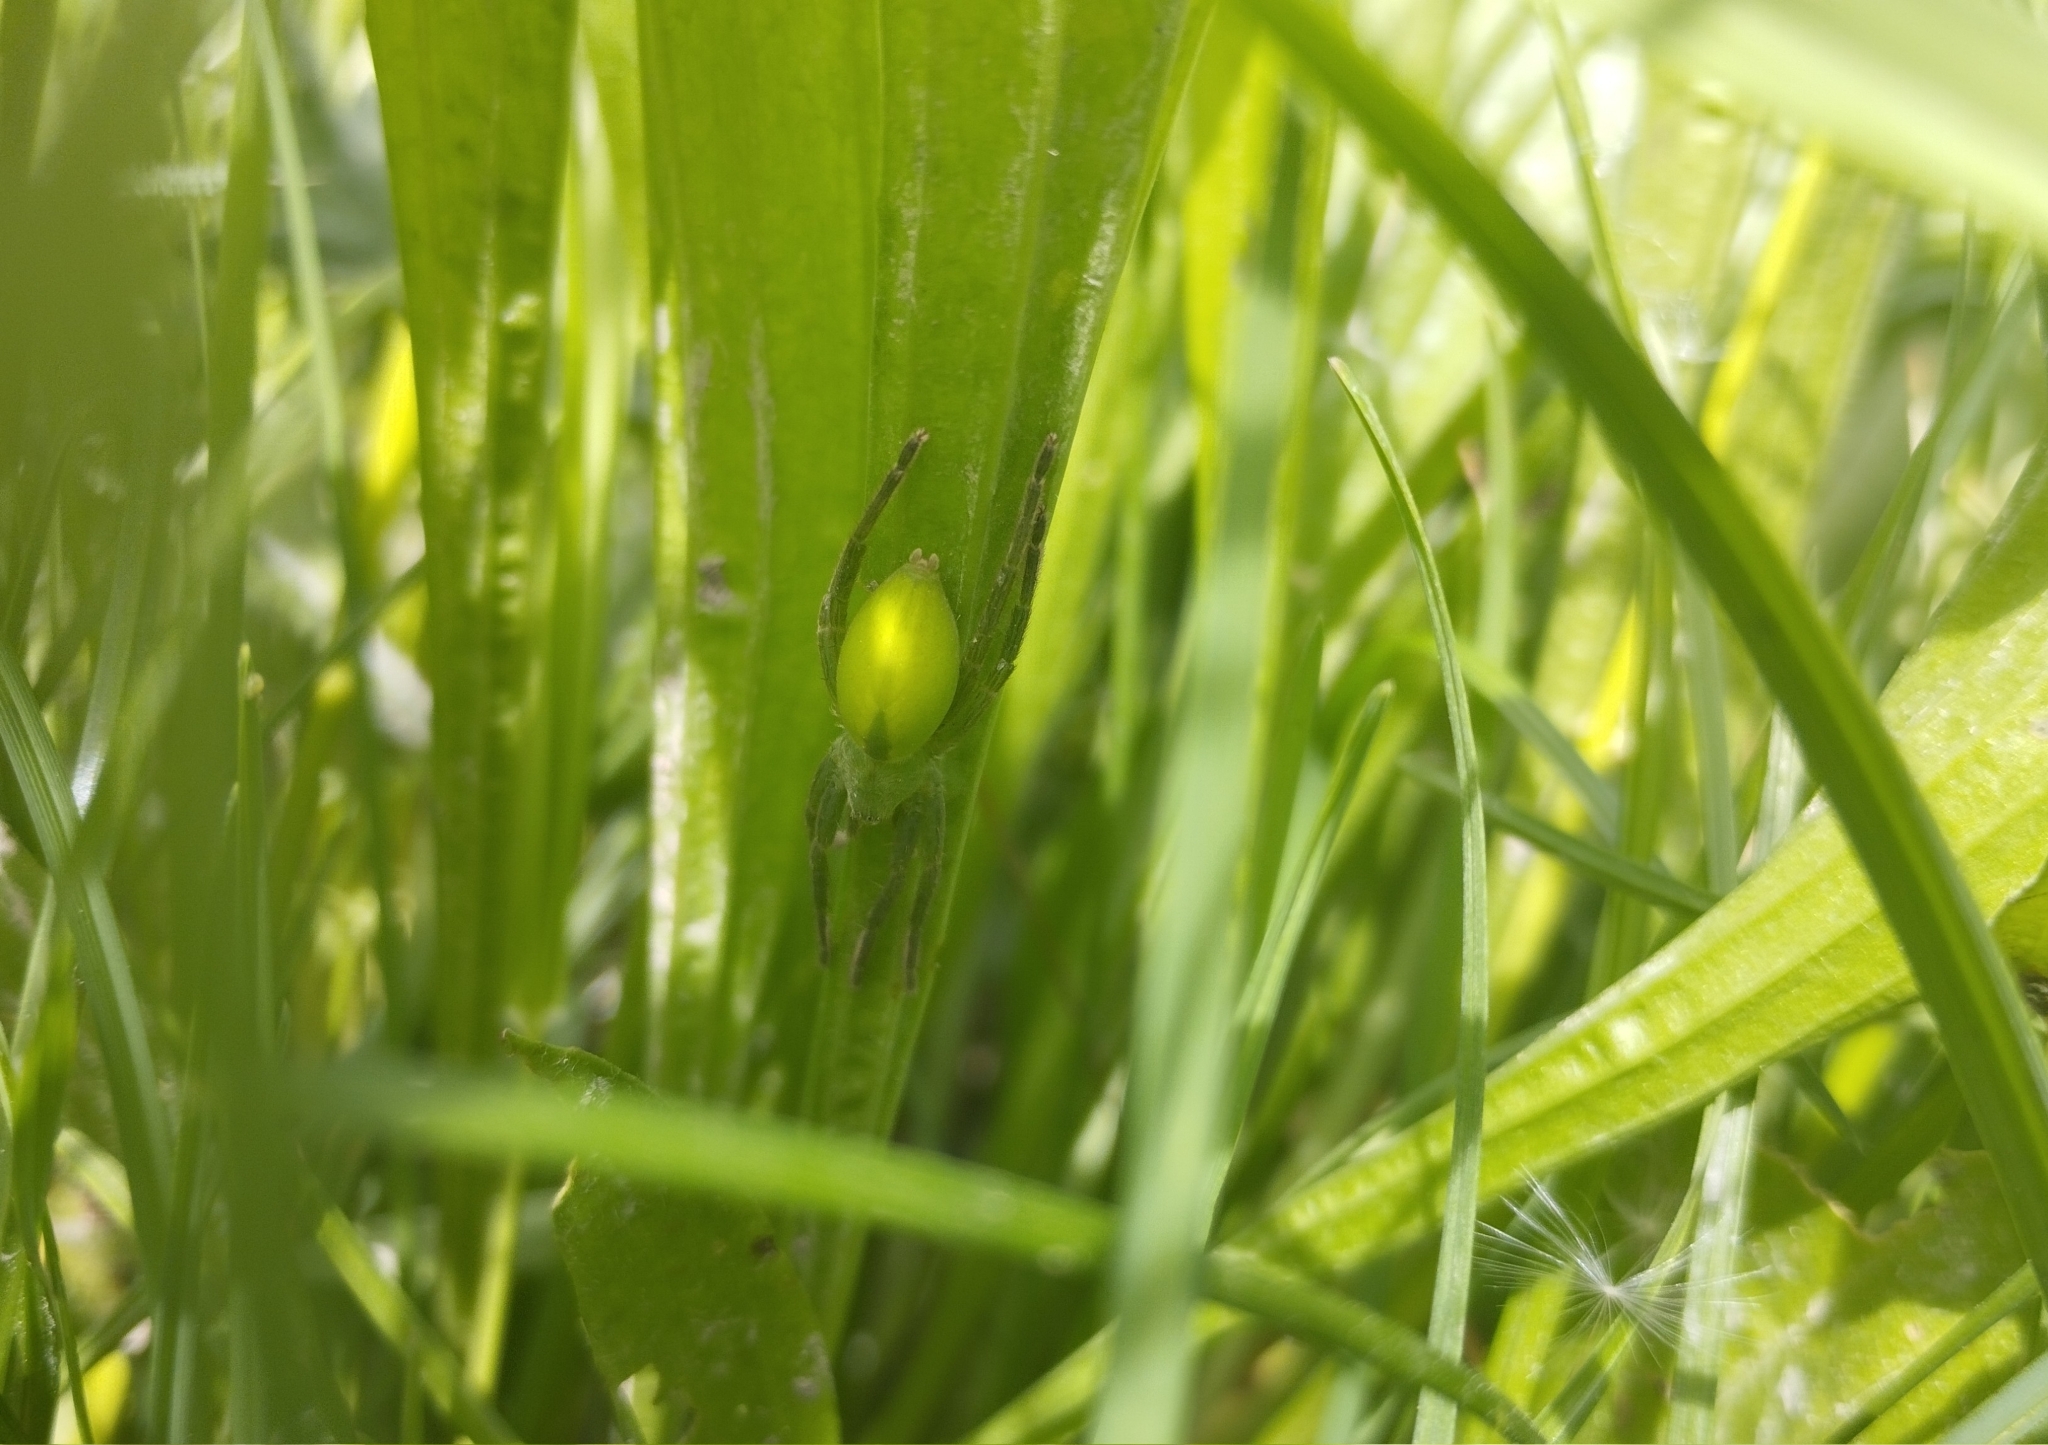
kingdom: Animalia
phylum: Arthropoda
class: Arachnida
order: Araneae
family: Sparassidae
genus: Micrommata
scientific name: Micrommata virescens
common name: Green spider
